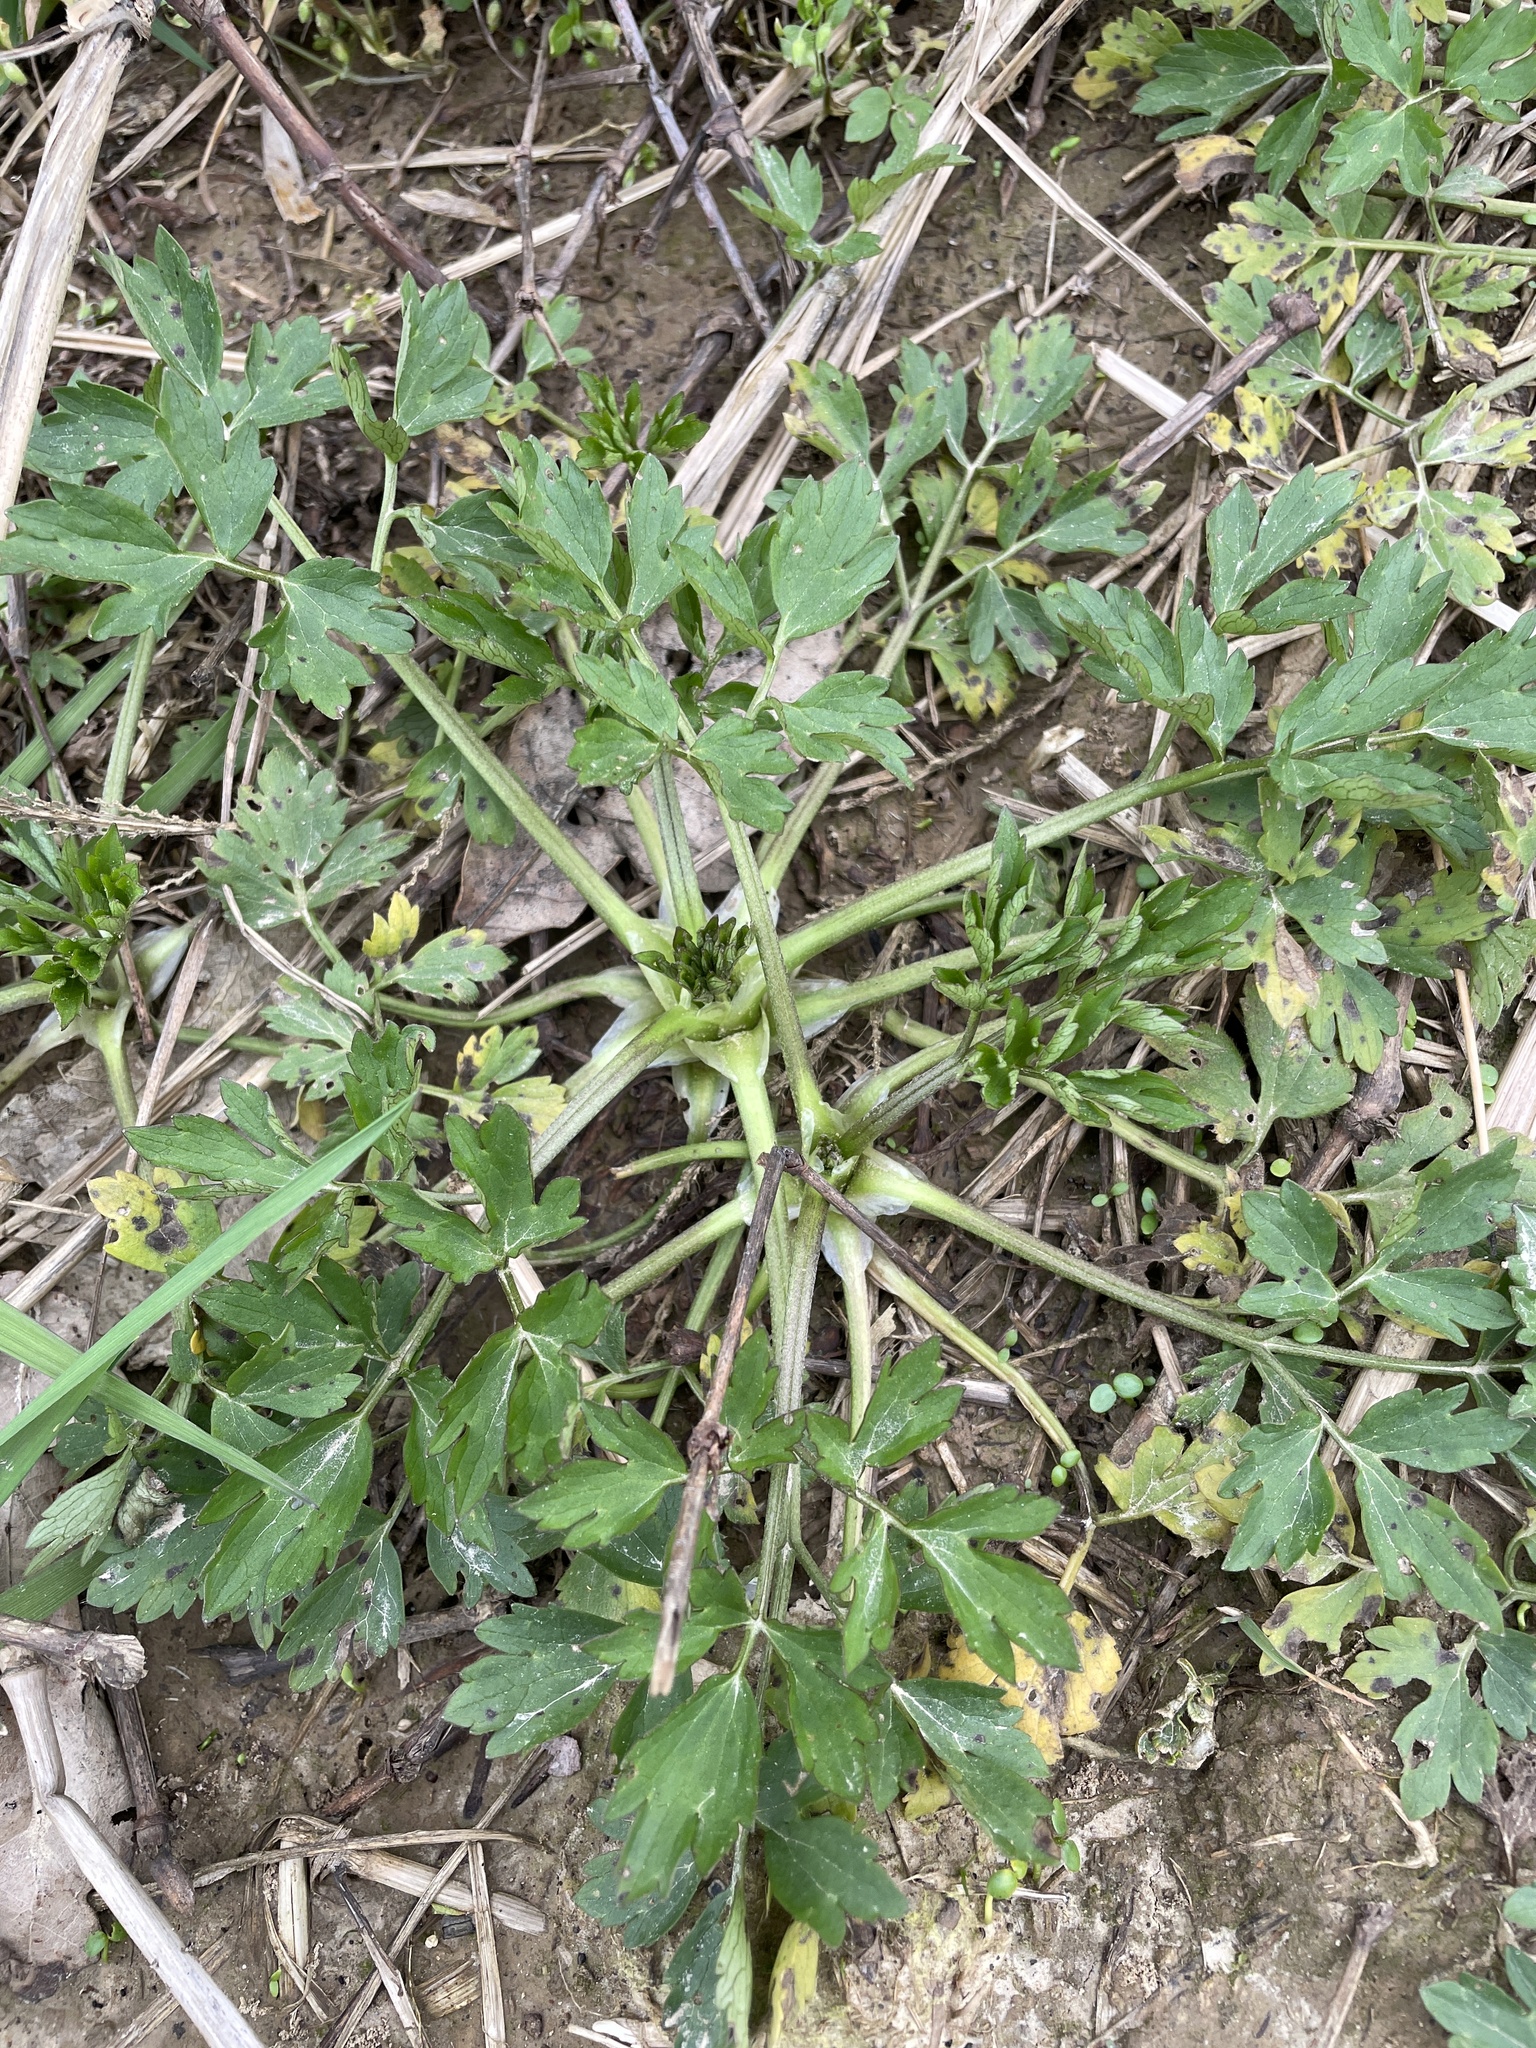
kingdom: Plantae
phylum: Tracheophyta
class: Magnoliopsida
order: Ranunculales
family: Ranunculaceae
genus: Ranunculus
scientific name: Ranunculus repens
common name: Creeping buttercup
